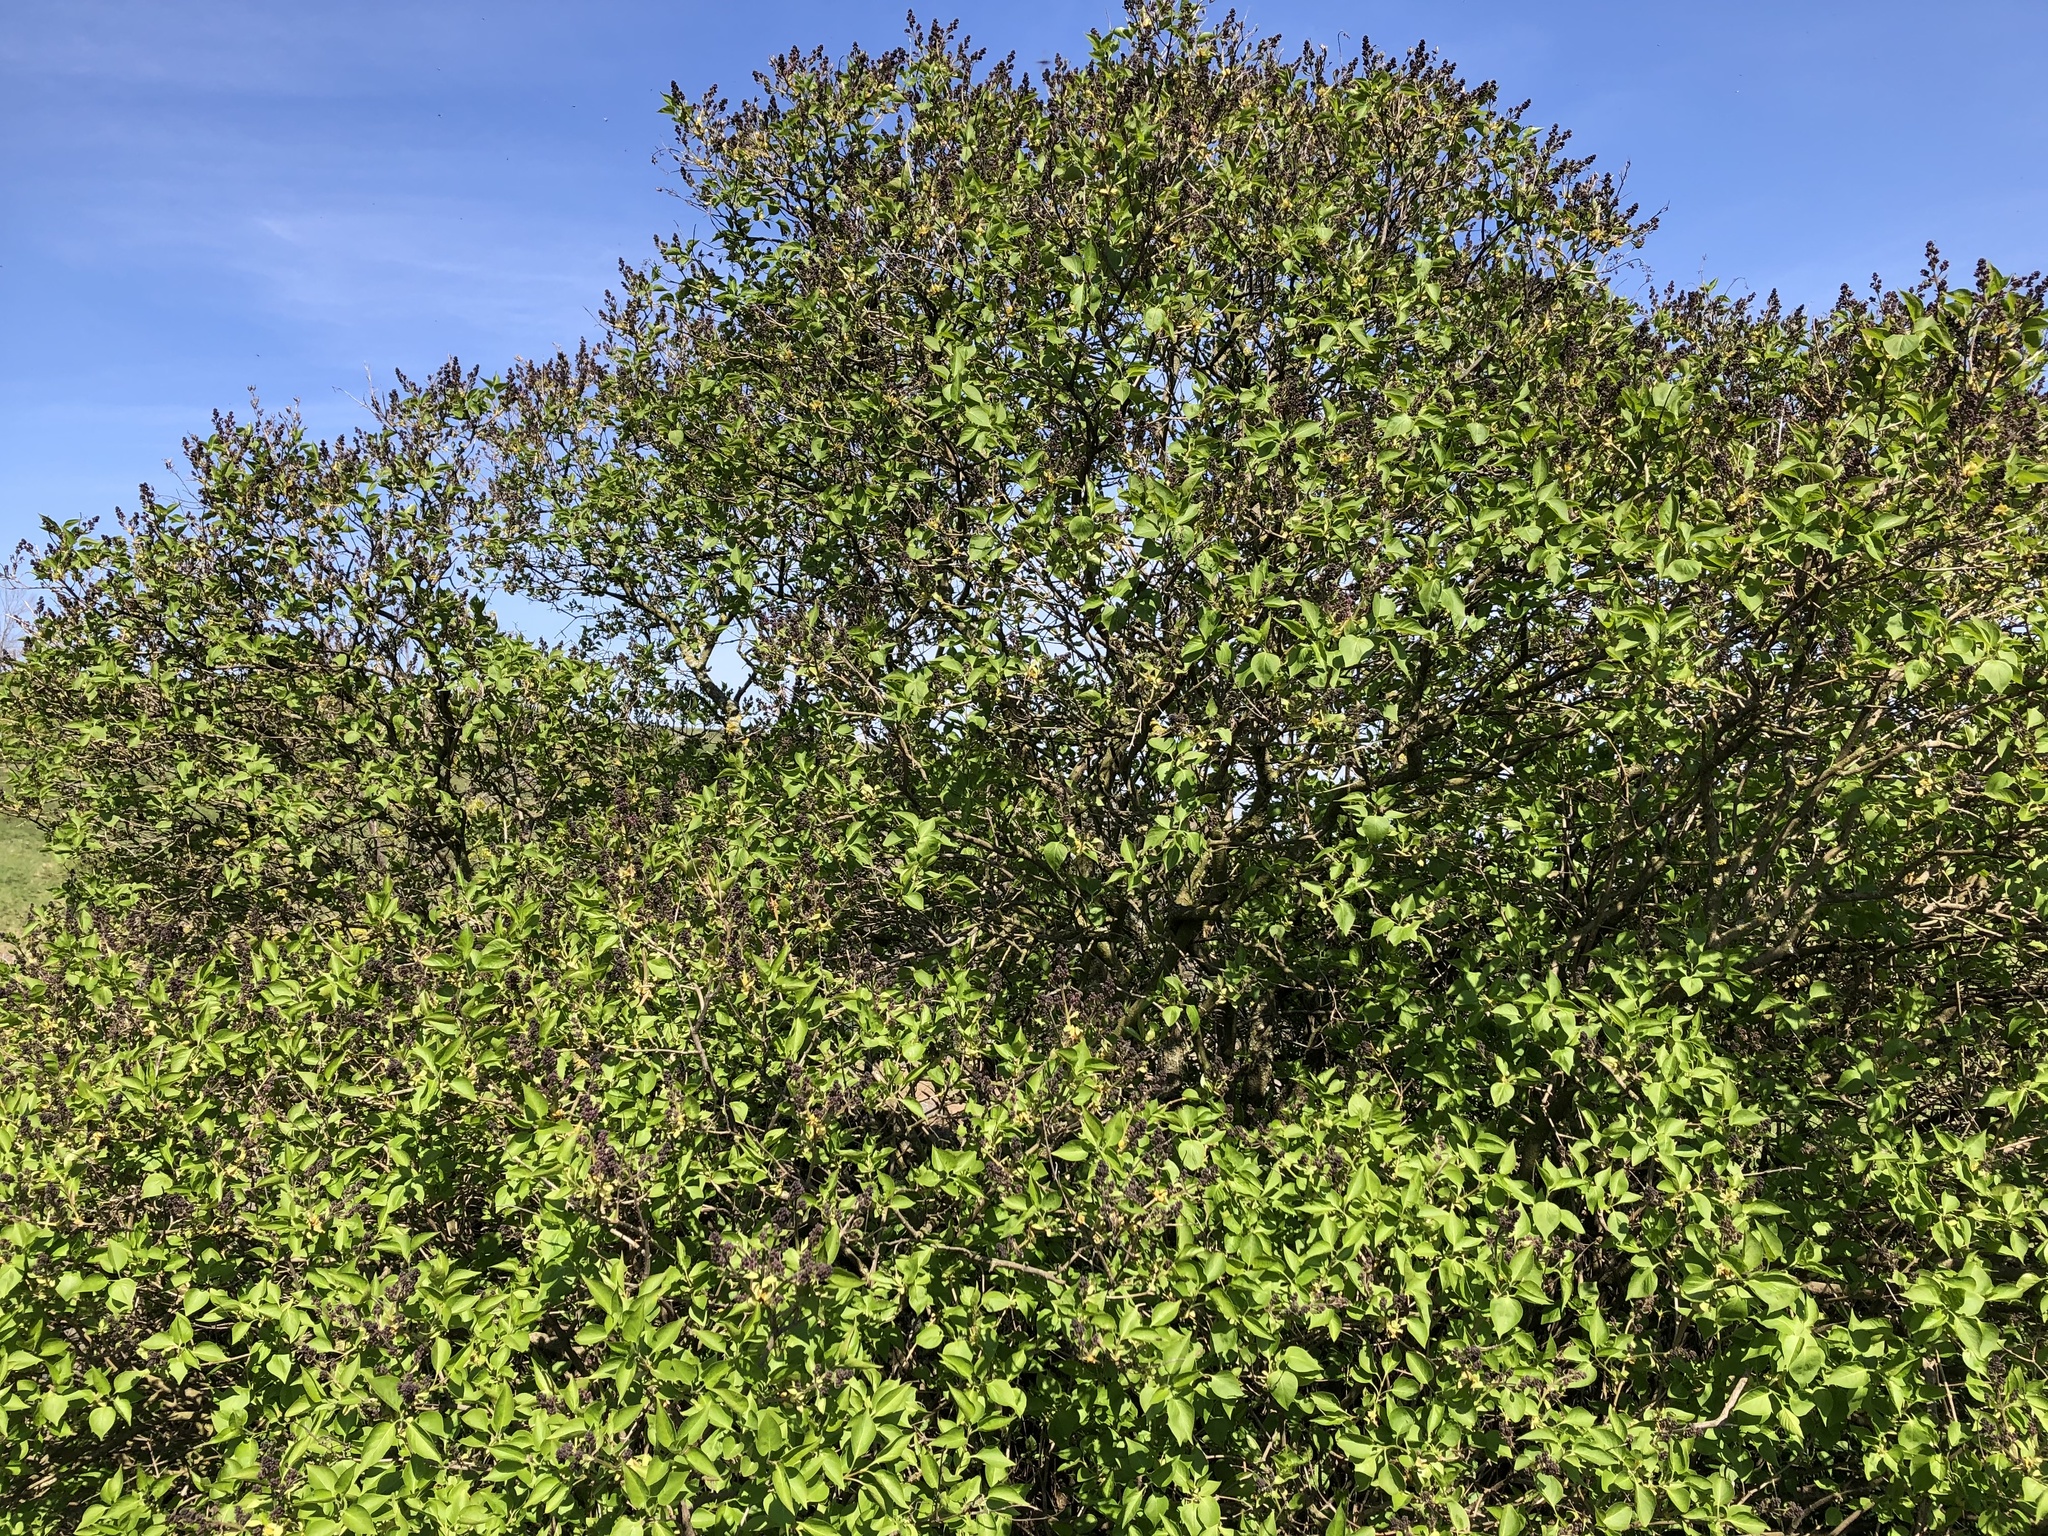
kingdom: Plantae
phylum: Tracheophyta
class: Magnoliopsida
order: Lamiales
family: Oleaceae
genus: Syringa
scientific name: Syringa vulgaris
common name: Common lilac
